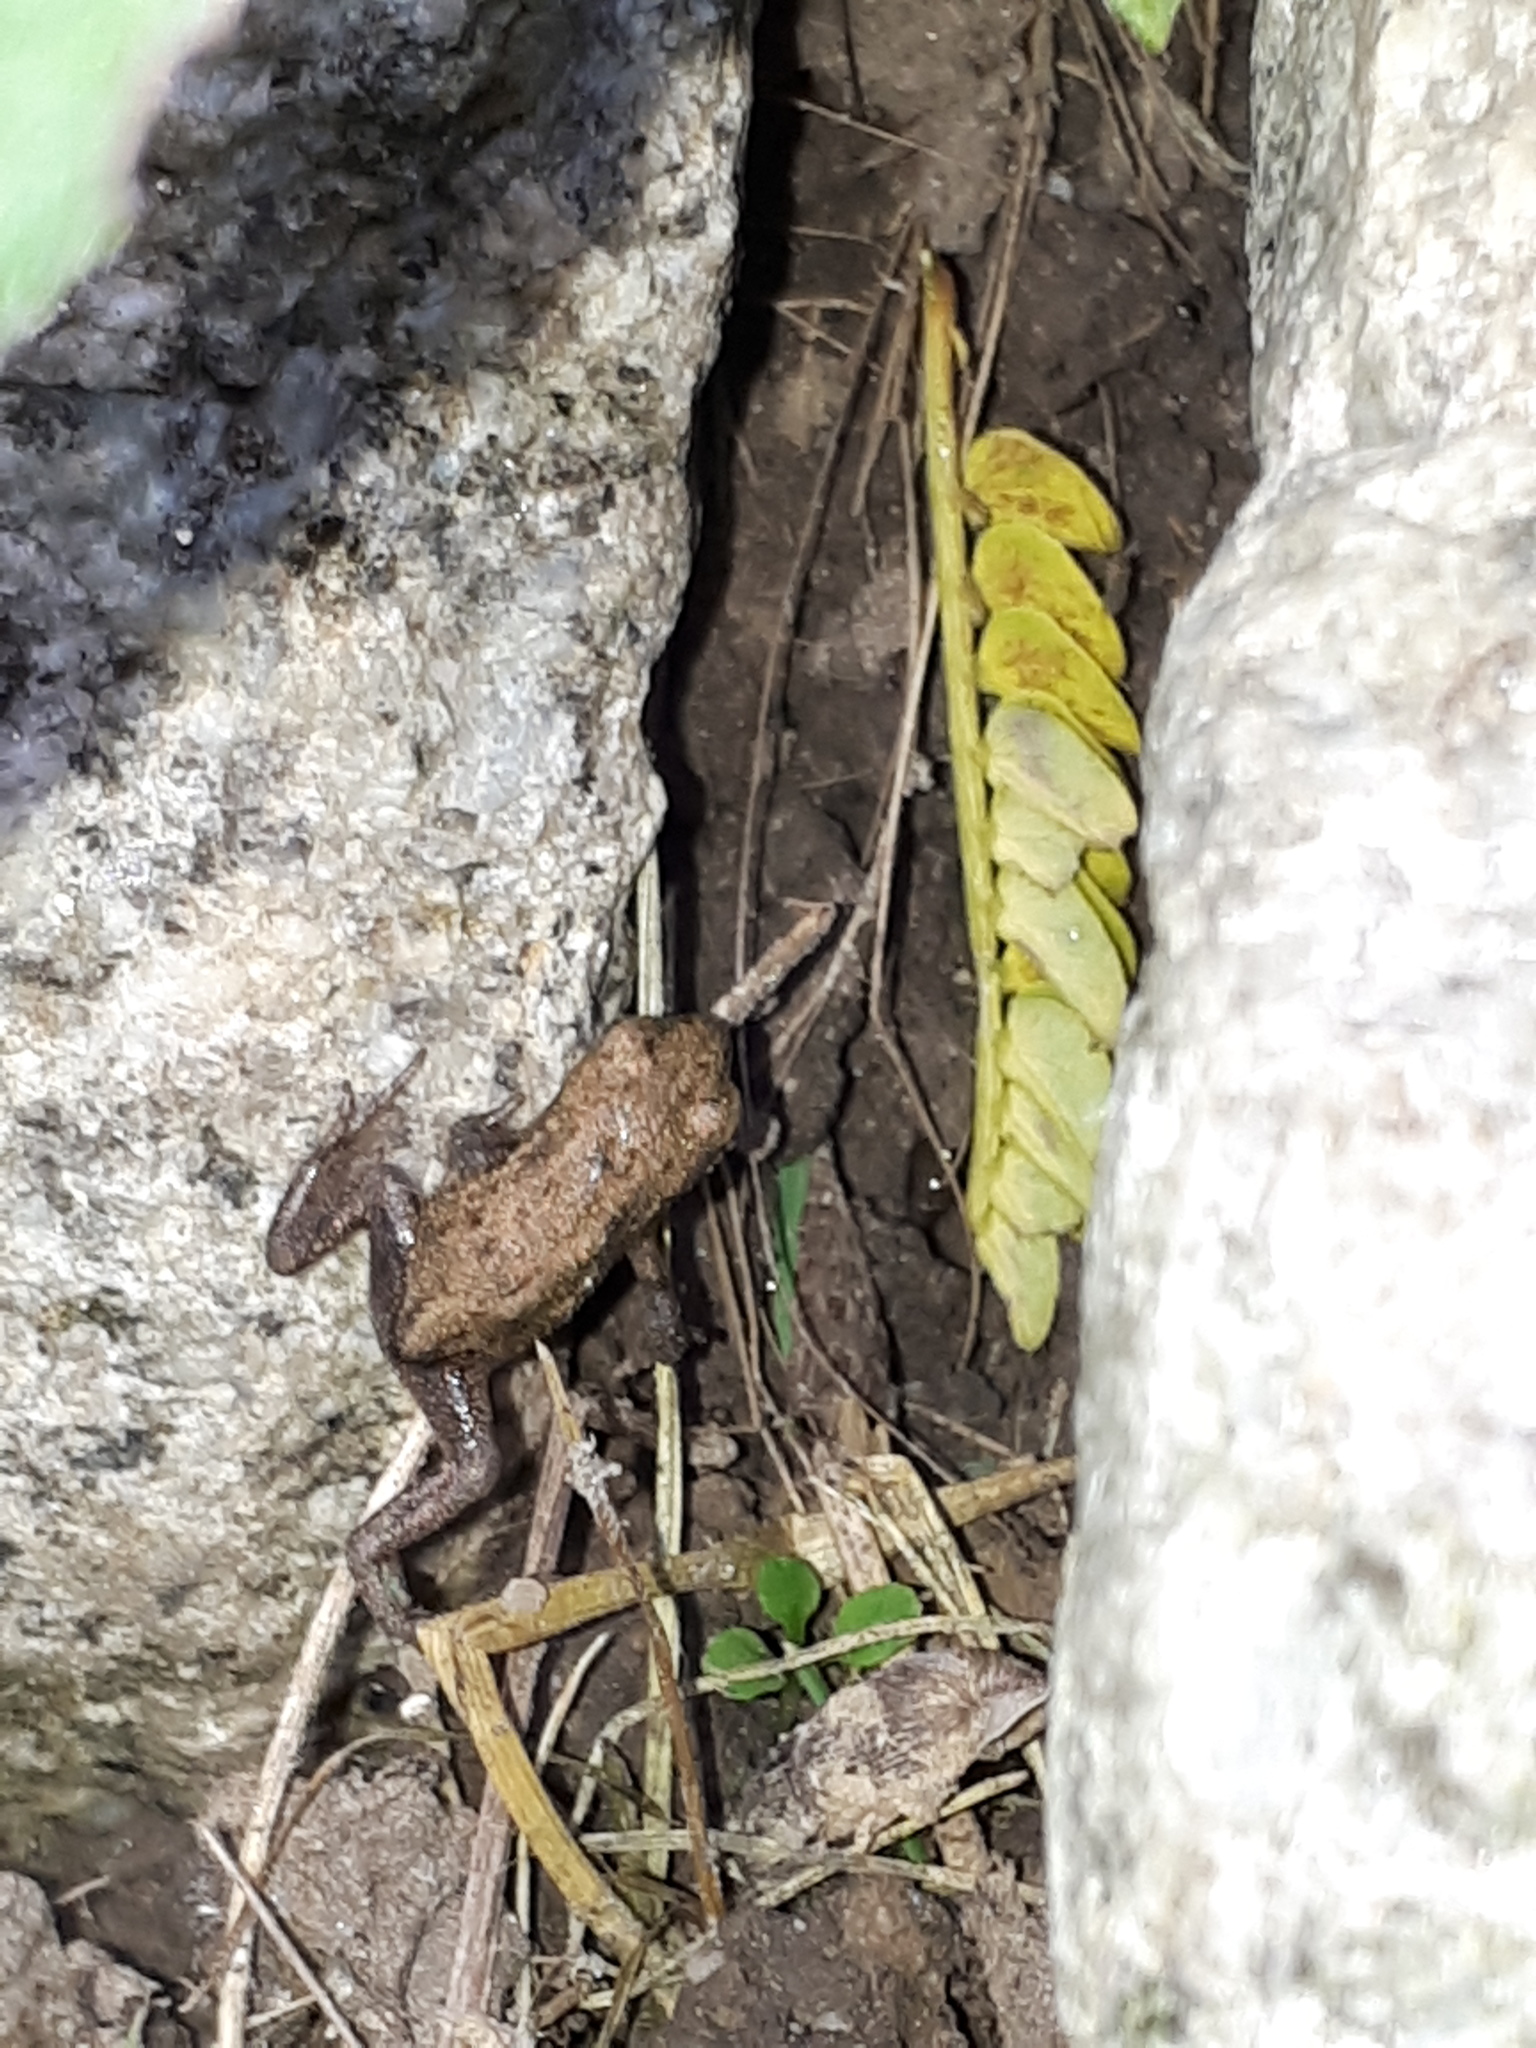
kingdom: Animalia
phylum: Chordata
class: Amphibia
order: Anura
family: Bufonidae
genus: Bufo
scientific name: Bufo bufo
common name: Common toad
